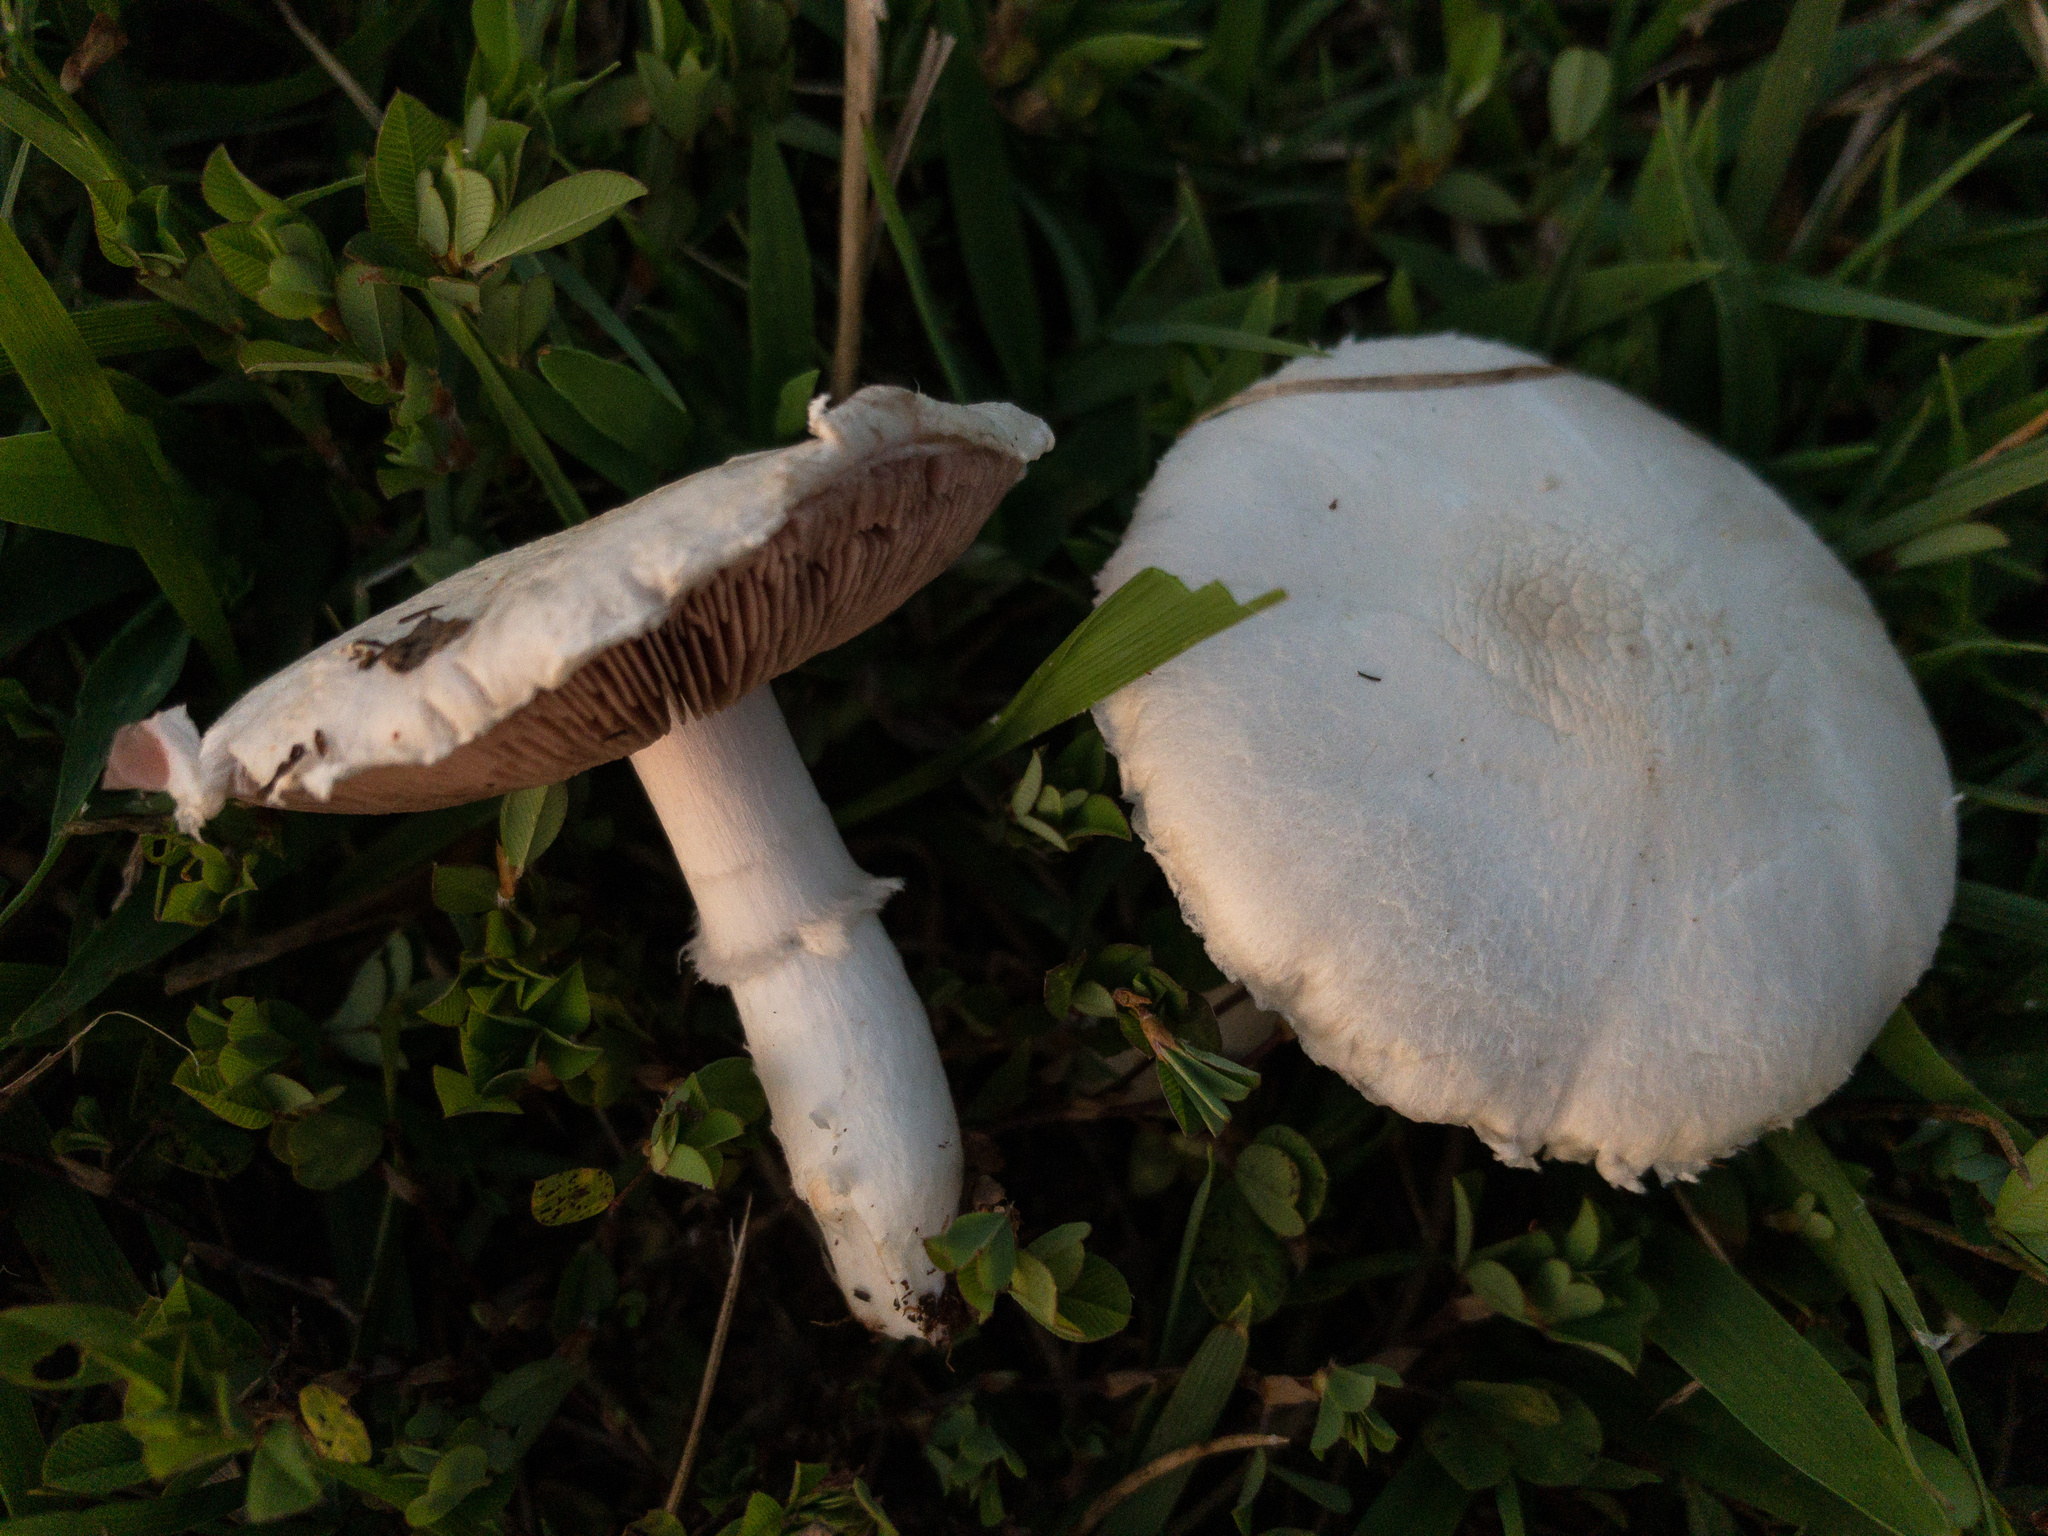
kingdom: Fungi
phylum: Basidiomycota
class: Agaricomycetes
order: Agaricales
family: Agaricaceae
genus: Agaricus
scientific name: Agaricus campestris
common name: Field mushroom
